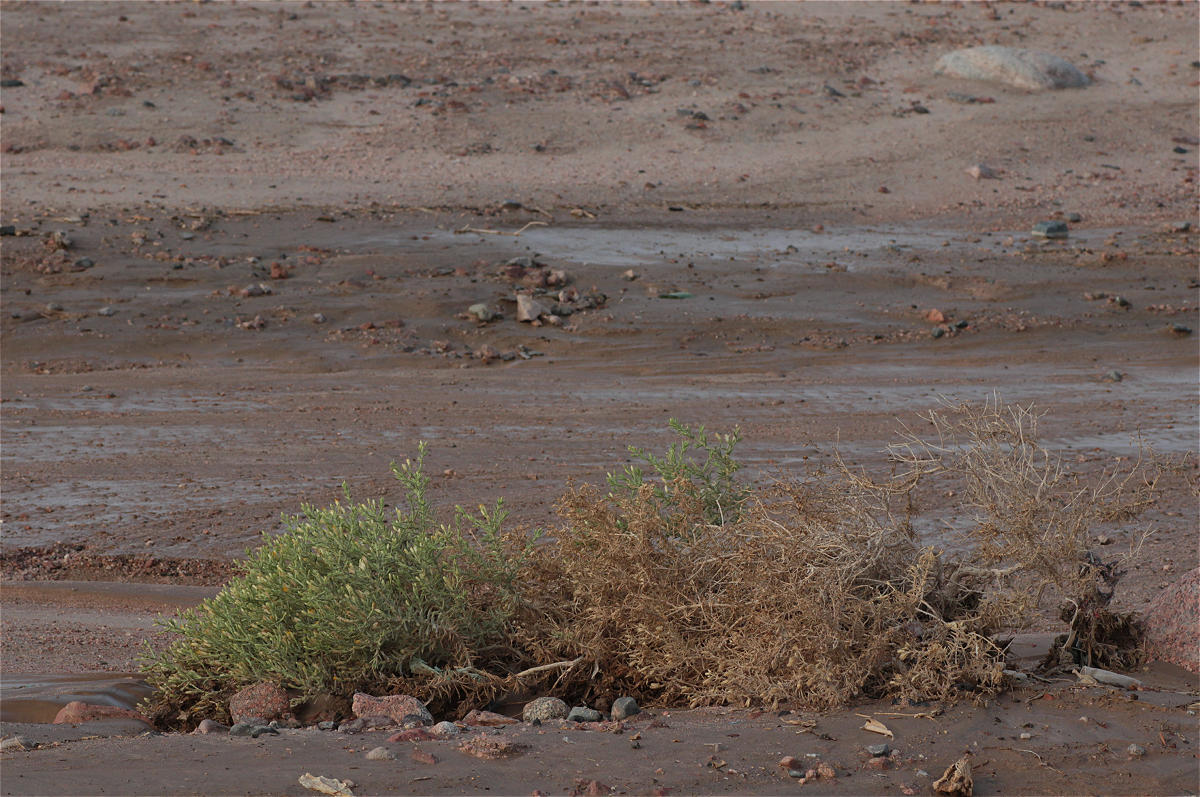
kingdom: Plantae
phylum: Tracheophyta
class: Magnoliopsida
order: Asterales
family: Asteraceae
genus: Iphiona
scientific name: Iphiona scabra
